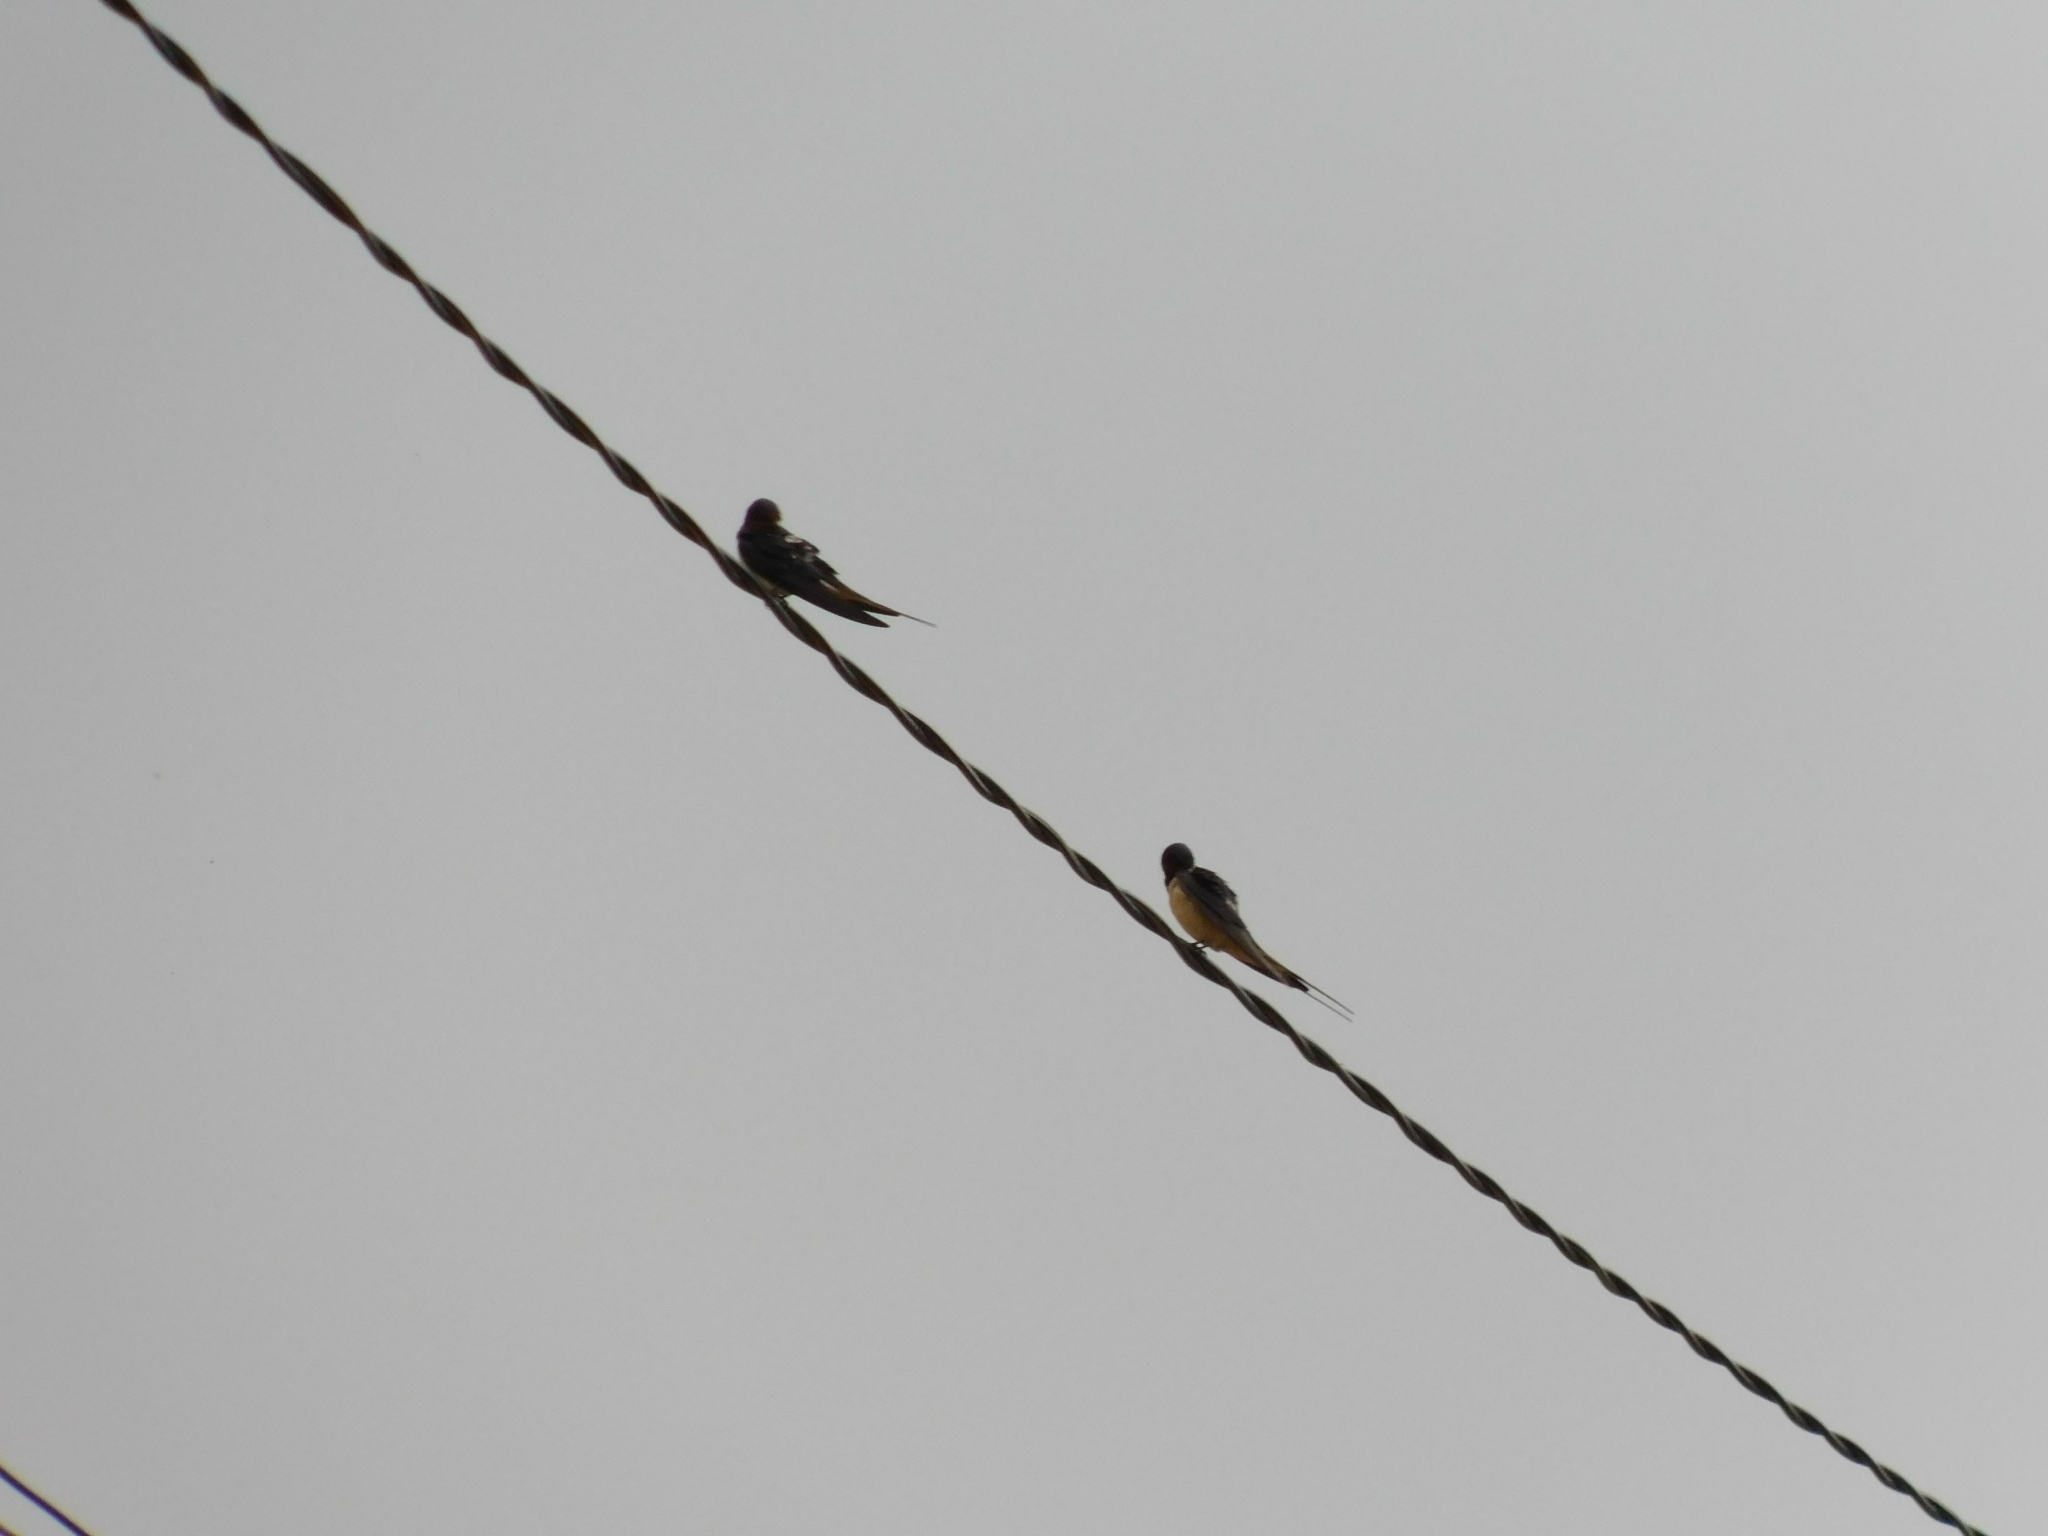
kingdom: Animalia
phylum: Chordata
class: Aves
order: Passeriformes
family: Hirundinidae
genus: Hirundo
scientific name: Hirundo rustica
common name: Barn swallow
